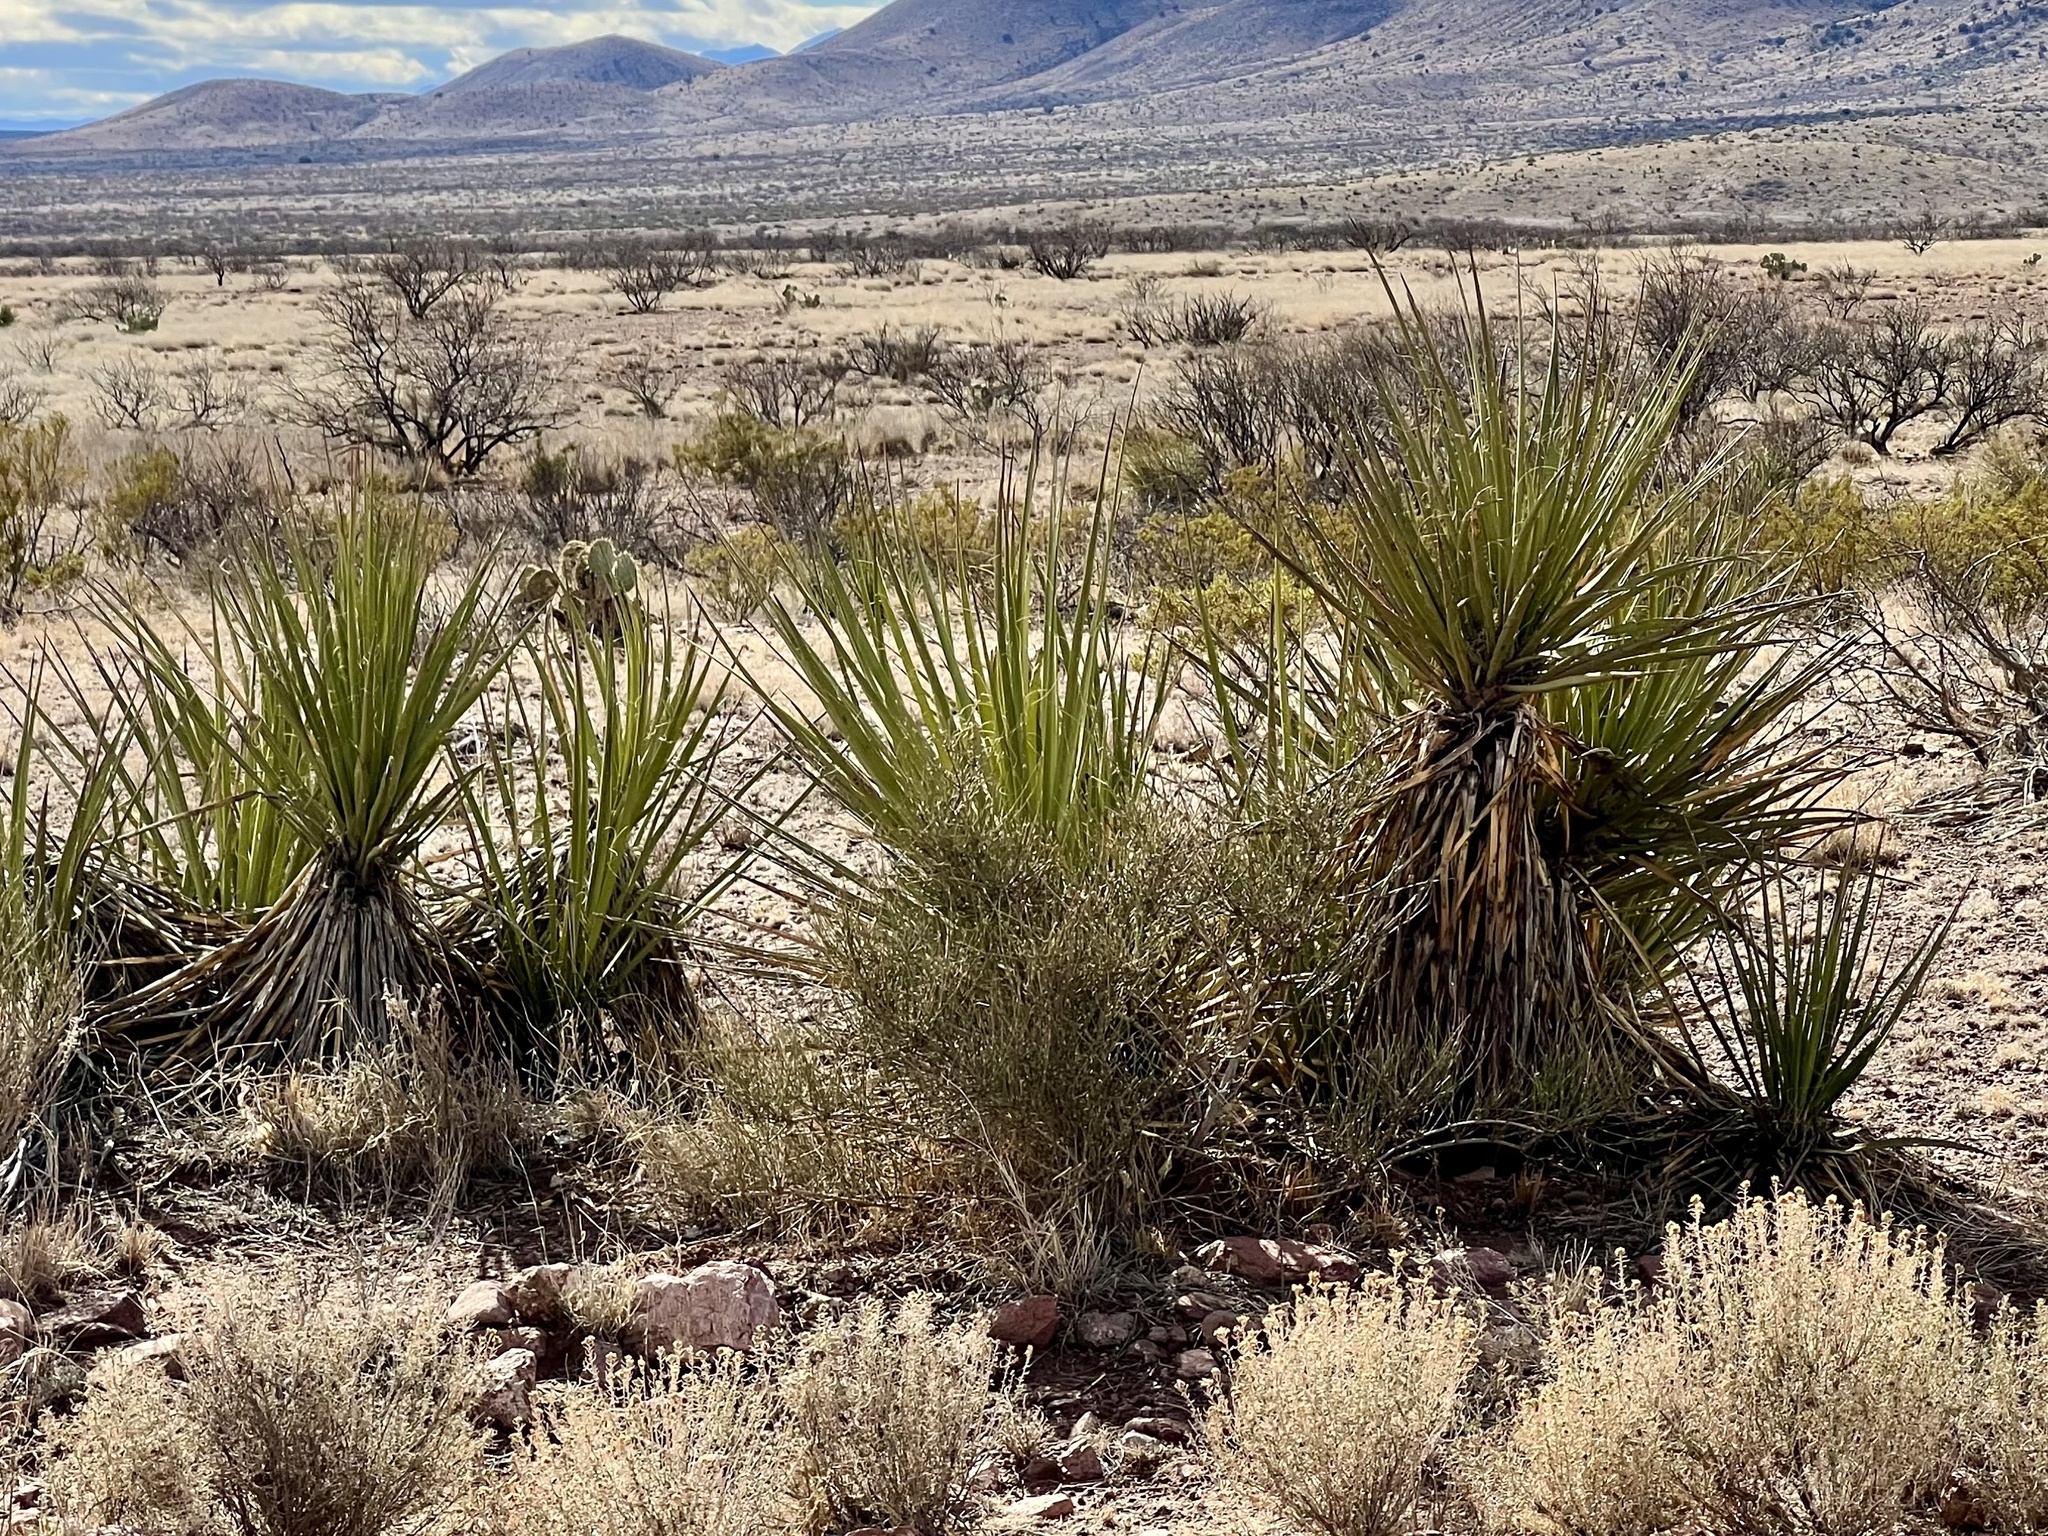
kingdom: Plantae
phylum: Tracheophyta
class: Liliopsida
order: Asparagales
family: Asparagaceae
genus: Yucca
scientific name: Yucca baccata
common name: Banana yucca
